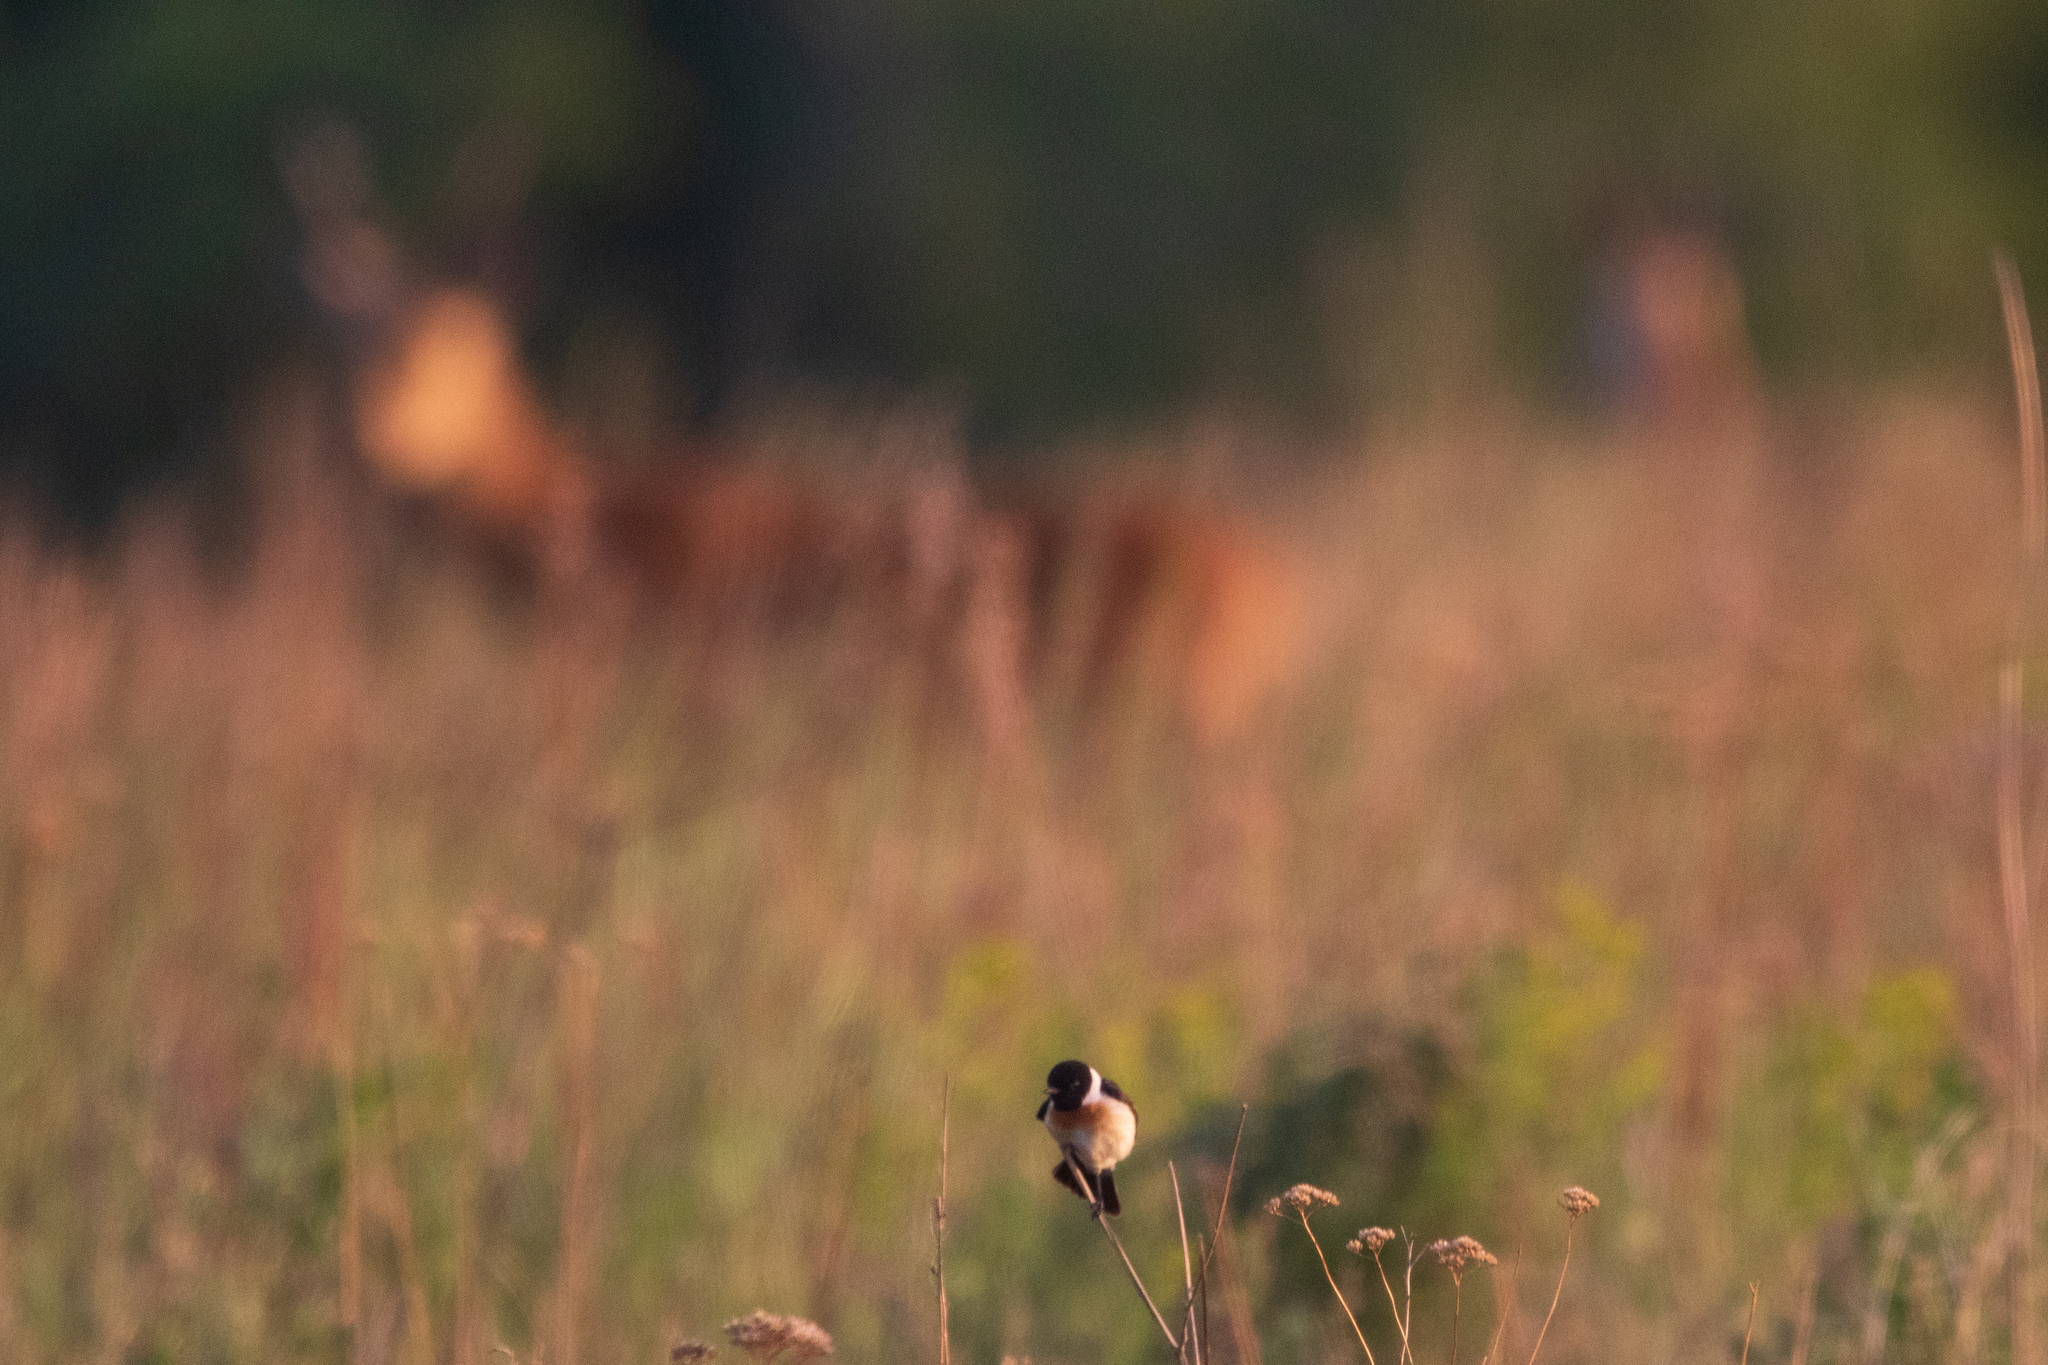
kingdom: Animalia
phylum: Chordata
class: Aves
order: Passeriformes
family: Muscicapidae
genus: Saxicola
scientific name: Saxicola maurus
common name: Siberian stonechat
